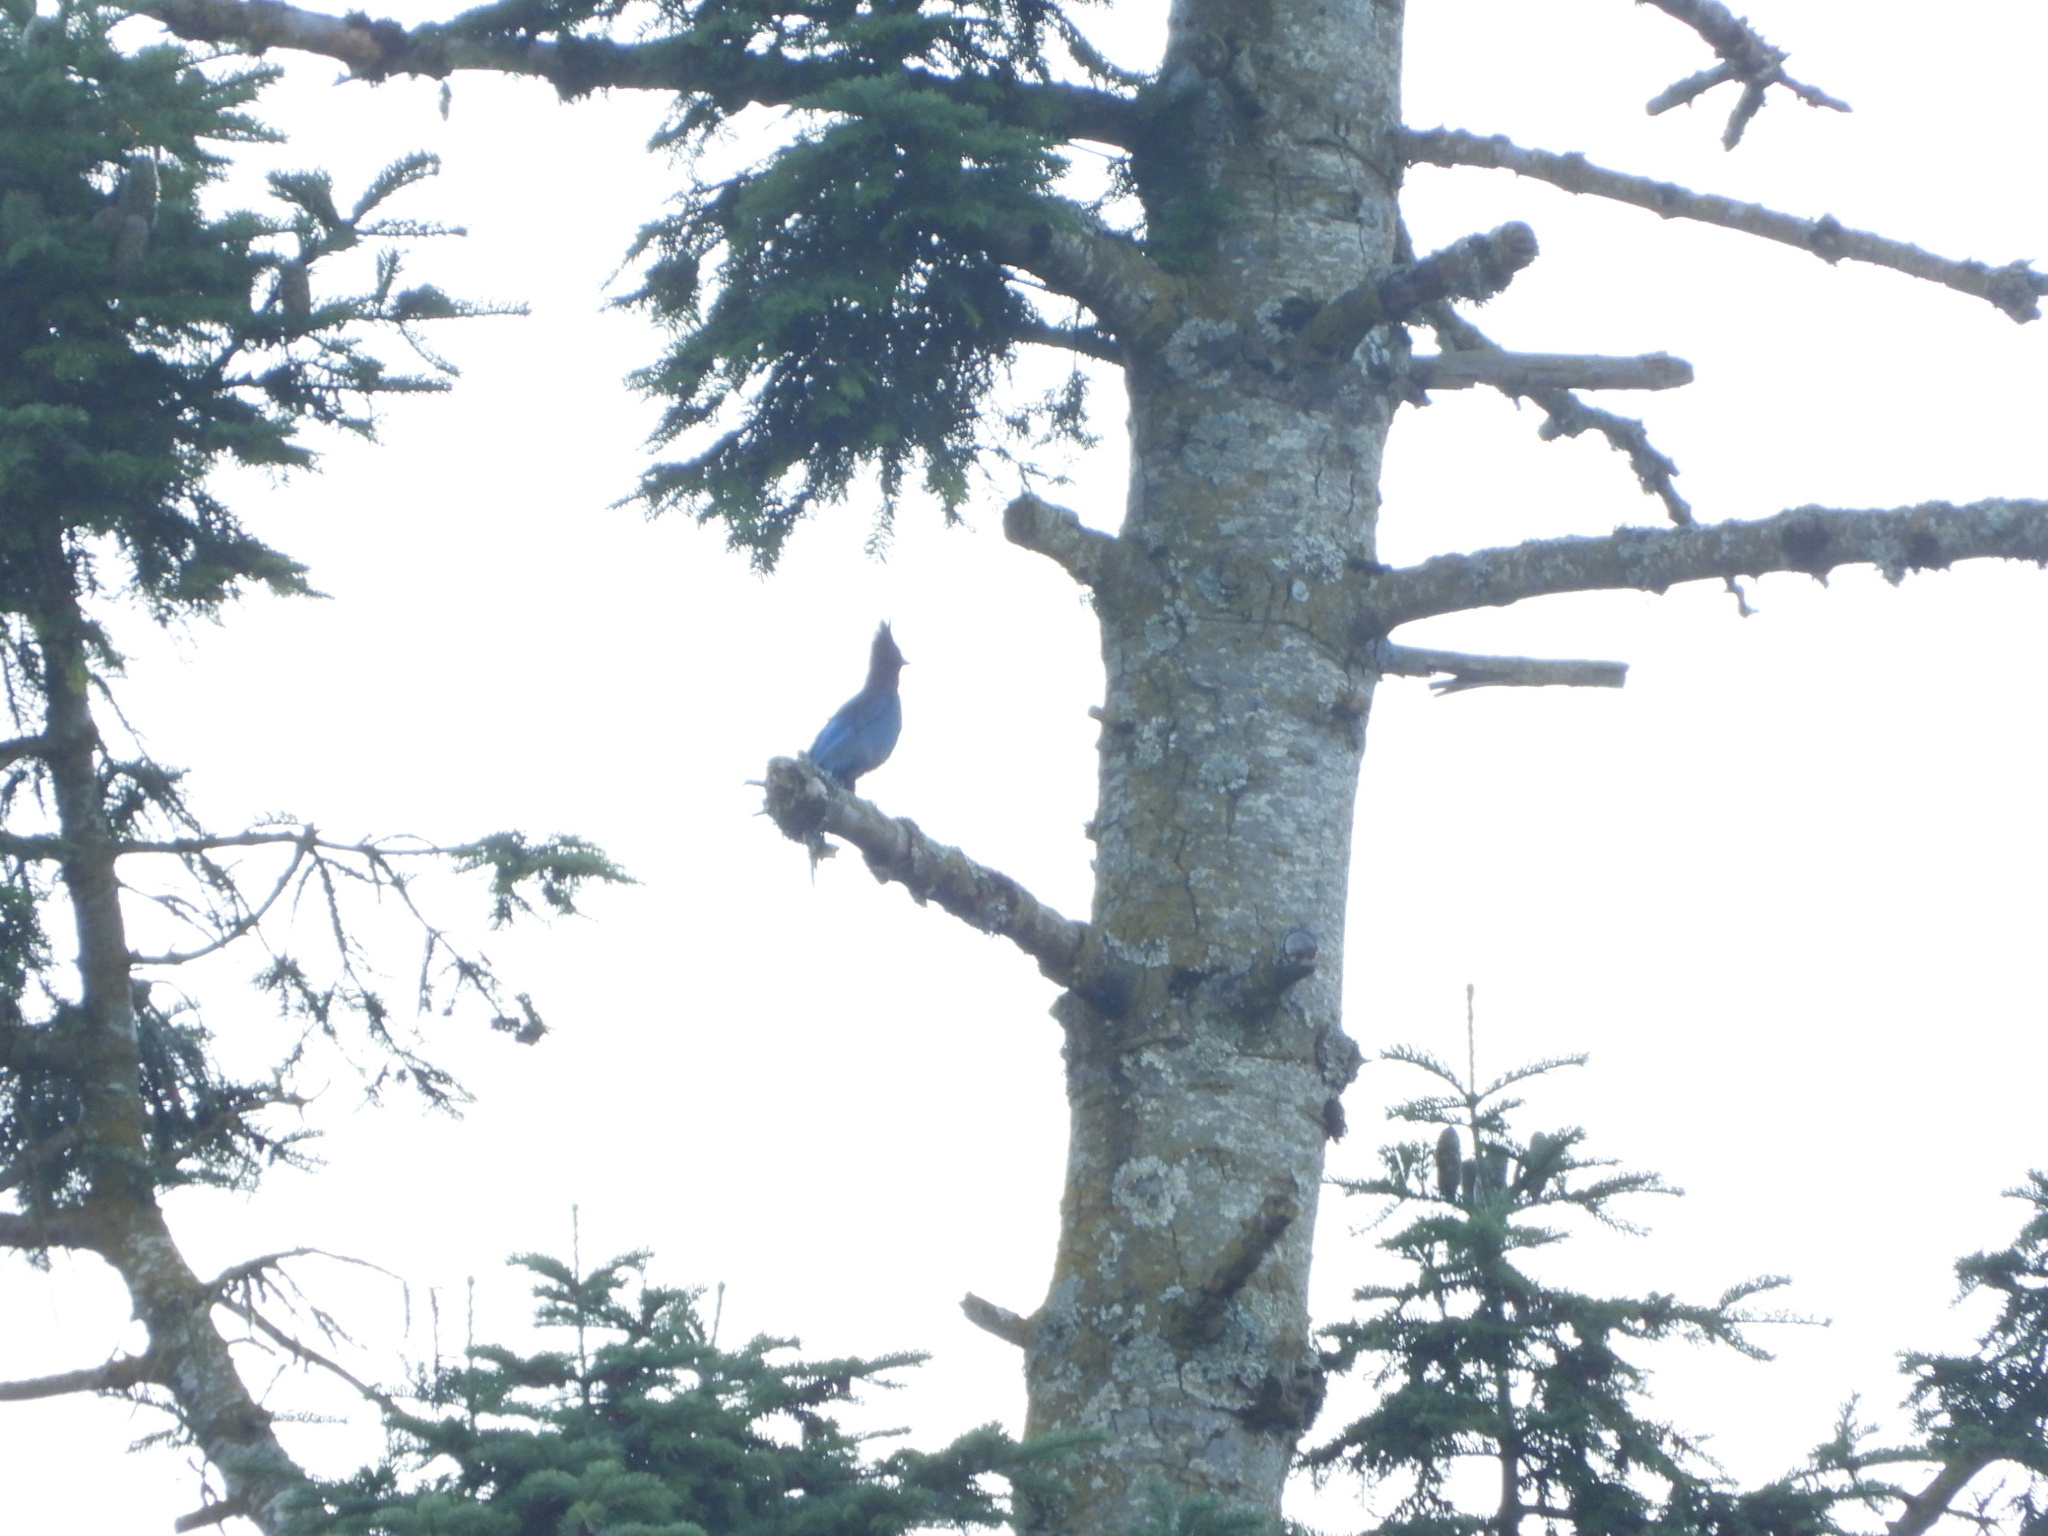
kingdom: Animalia
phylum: Chordata
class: Aves
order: Passeriformes
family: Corvidae
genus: Cyanocitta
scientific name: Cyanocitta stelleri
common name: Steller's jay
